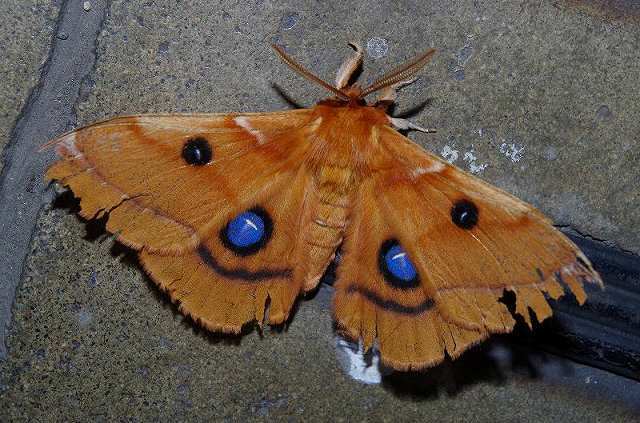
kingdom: Animalia
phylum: Arthropoda
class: Insecta
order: Lepidoptera
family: Saturniidae
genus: Aglia
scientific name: Aglia japonica
